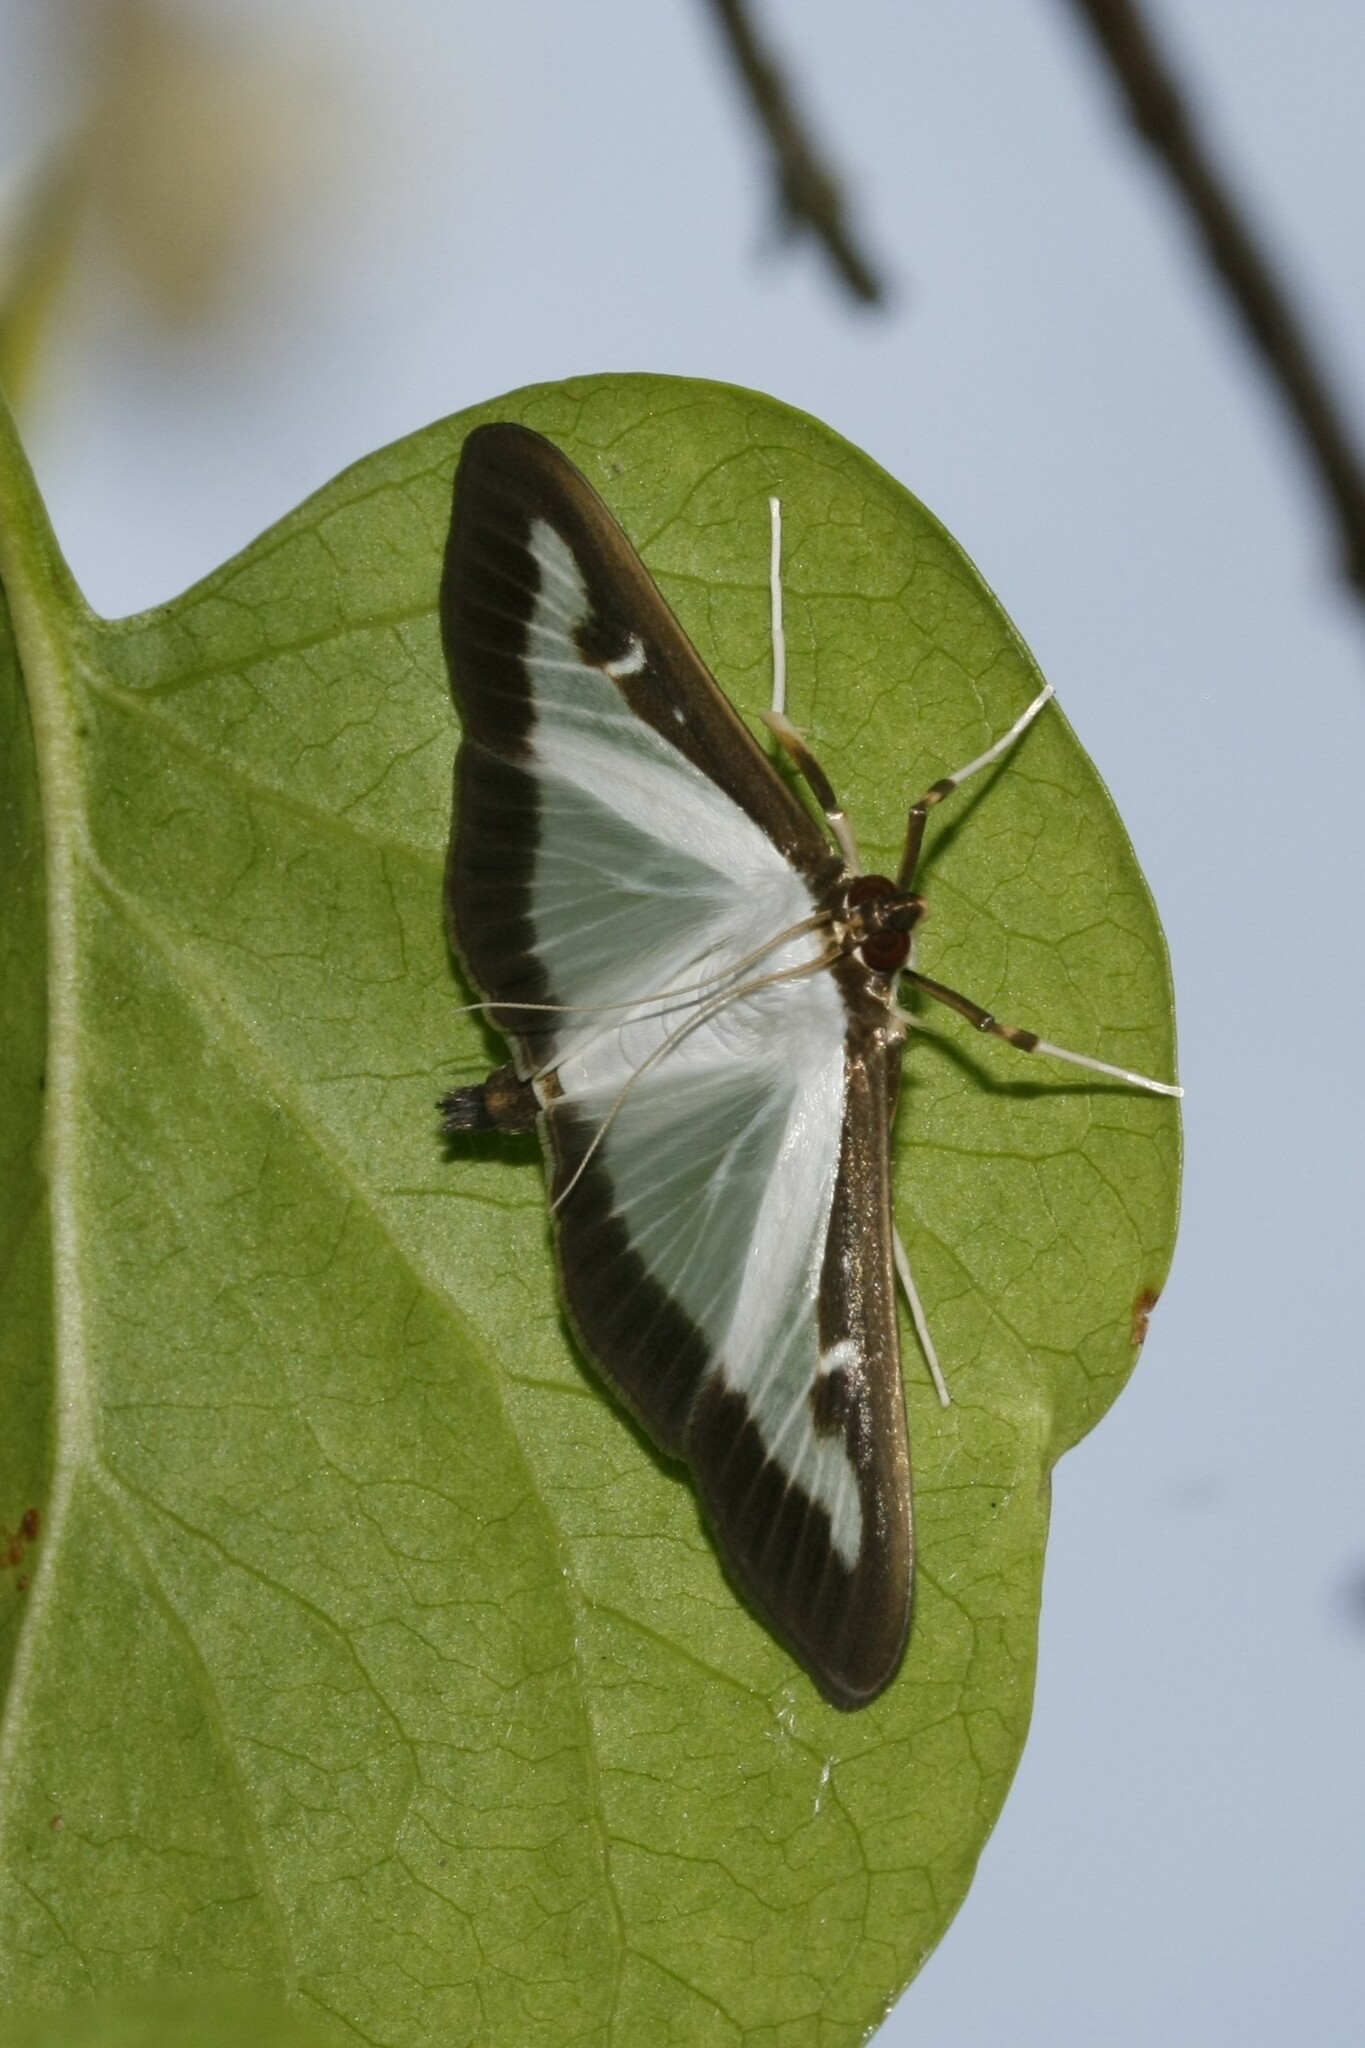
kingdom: Animalia
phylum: Arthropoda
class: Insecta
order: Lepidoptera
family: Crambidae
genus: Cydalima
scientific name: Cydalima perspectalis
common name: Box tree moth
